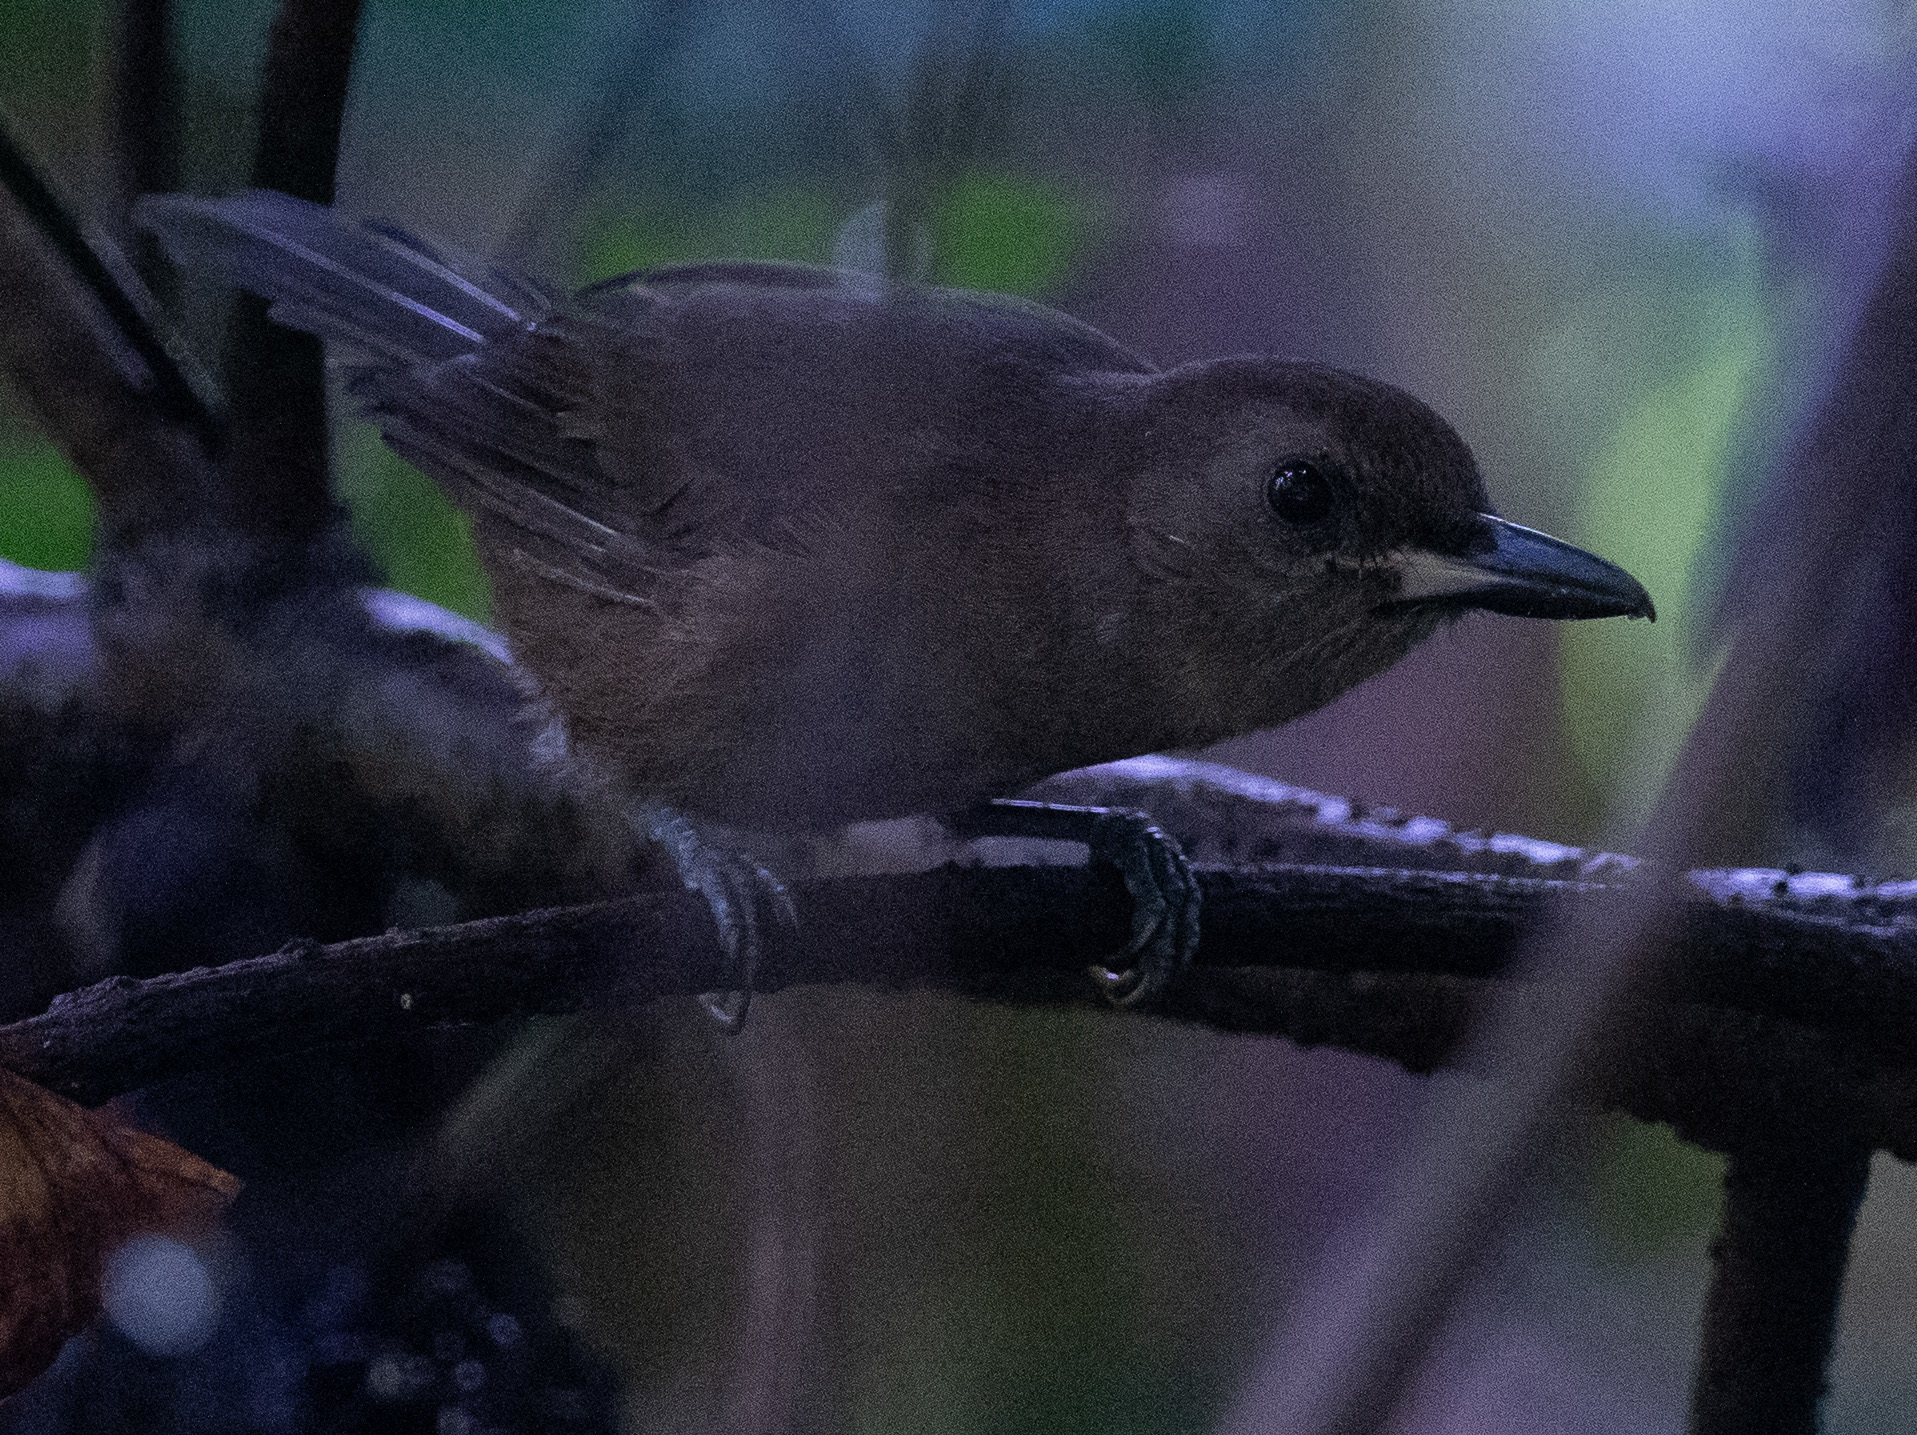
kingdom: Animalia
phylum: Chordata
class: Aves
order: Passeriformes
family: Monarchidae
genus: Clytorhynchus
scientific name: Clytorhynchus vitiensis
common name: Fiji shrikebill
